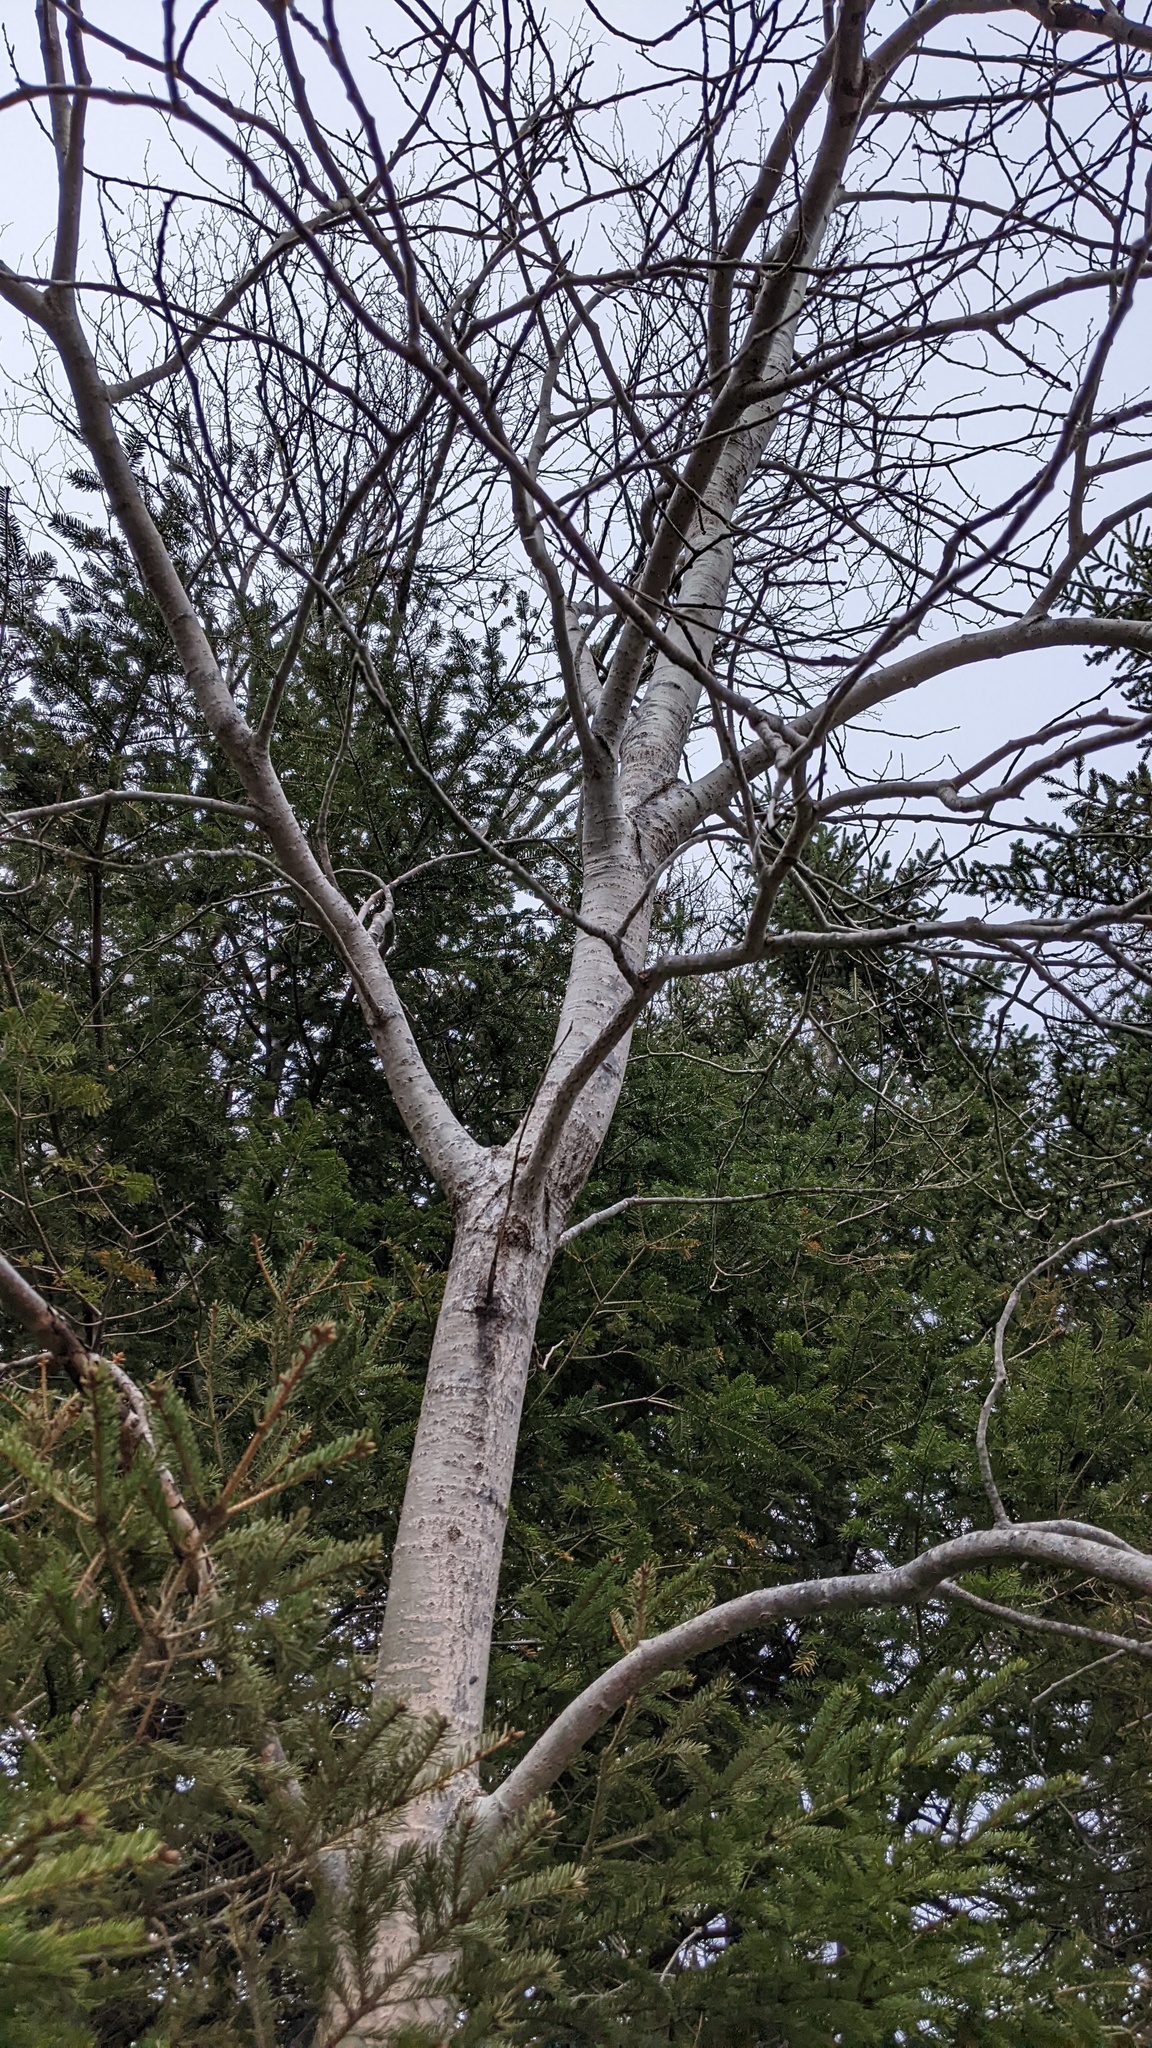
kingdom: Plantae
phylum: Tracheophyta
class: Magnoliopsida
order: Malpighiales
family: Salicaceae
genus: Populus
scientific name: Populus tremuloides
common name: Quaking aspen
